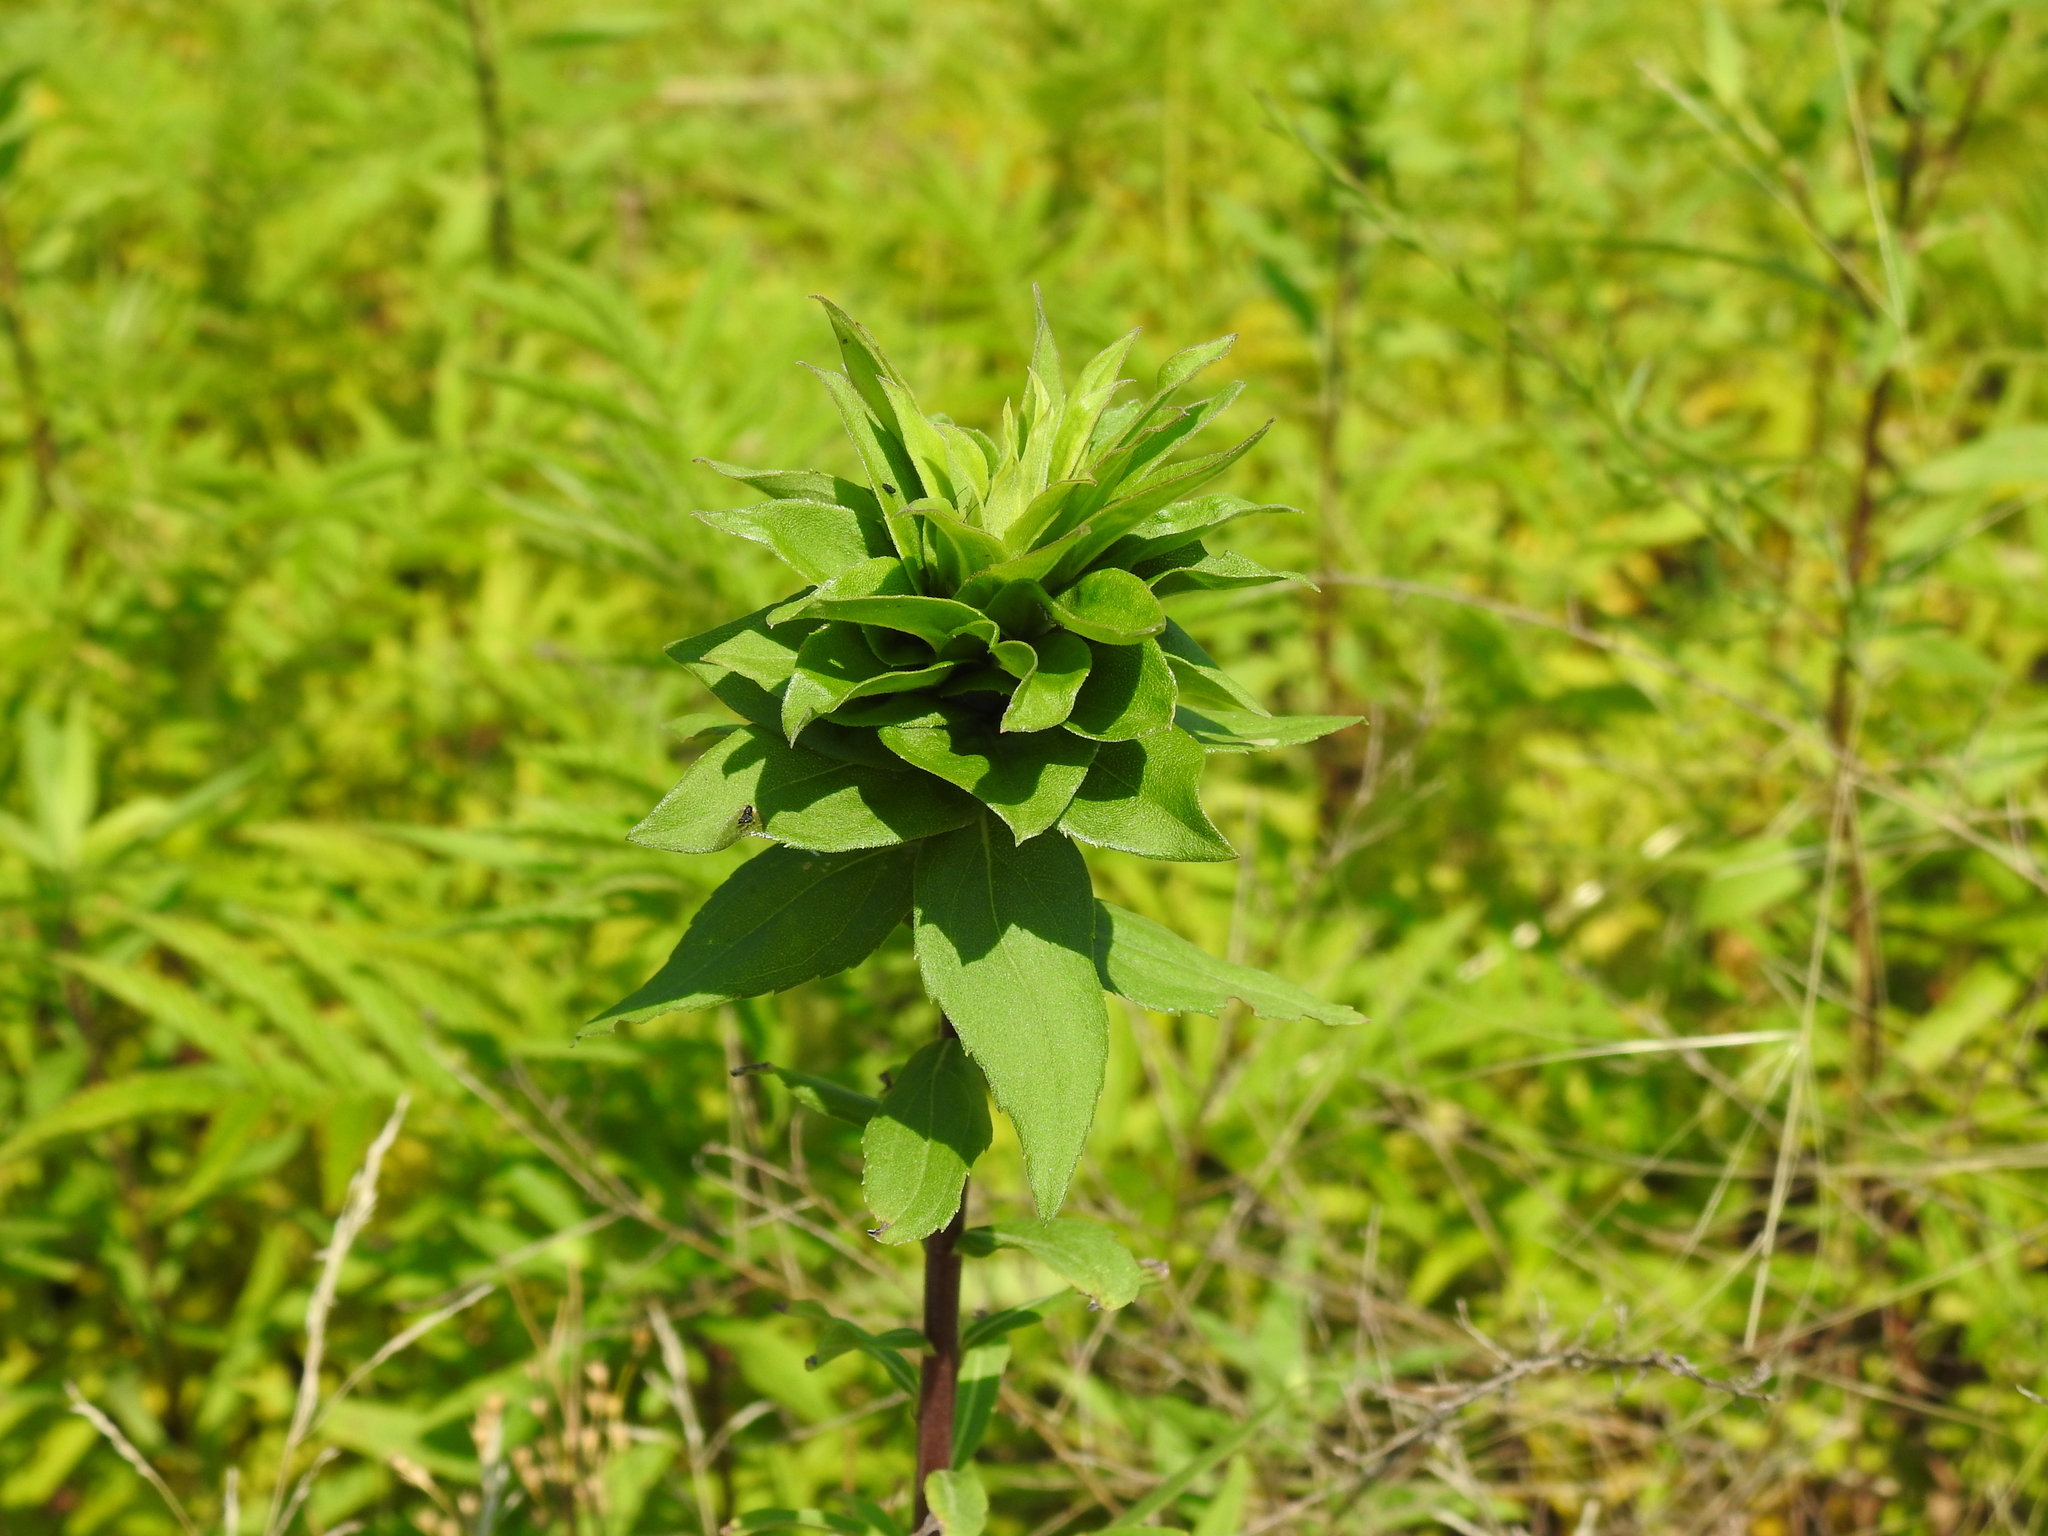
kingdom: Animalia
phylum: Arthropoda
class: Insecta
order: Diptera
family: Cecidomyiidae
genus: Rhopalomyia
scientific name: Rhopalomyia solidaginis
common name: Goldenrod bunch gall midge
